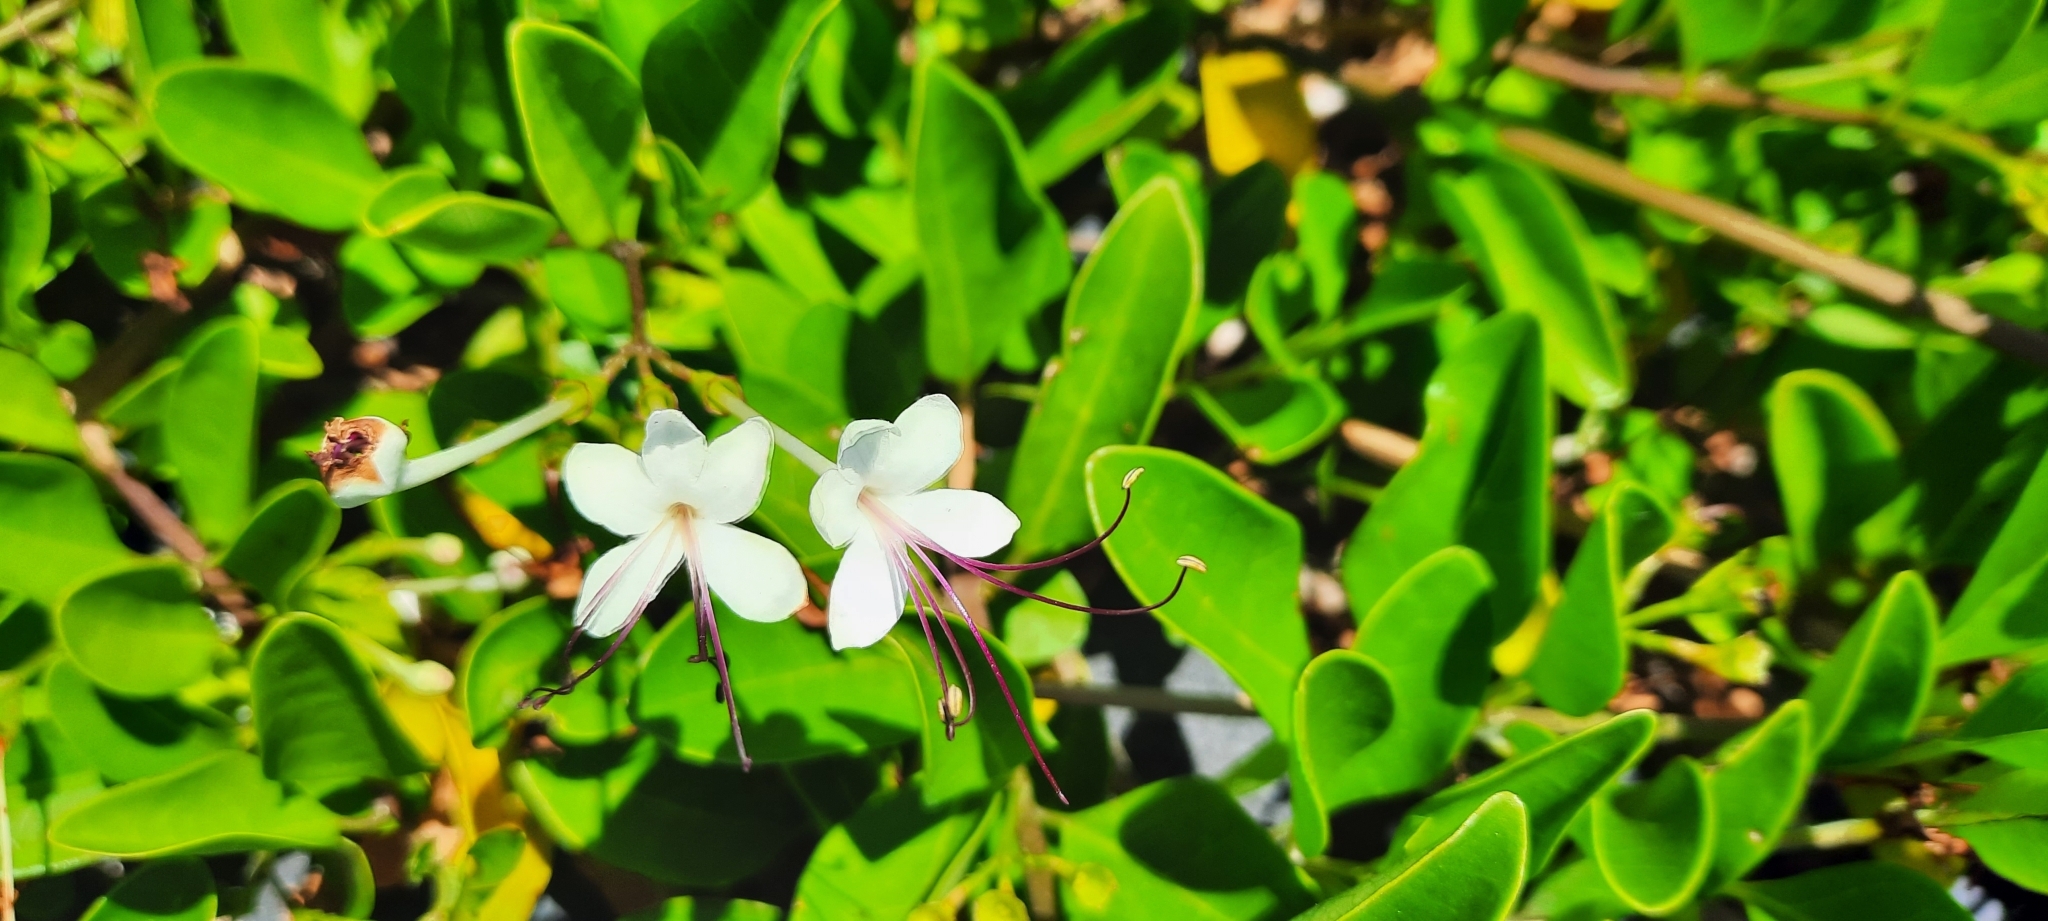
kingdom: Plantae
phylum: Tracheophyta
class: Magnoliopsida
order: Lamiales
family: Lamiaceae
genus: Volkameria
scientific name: Volkameria inermis
